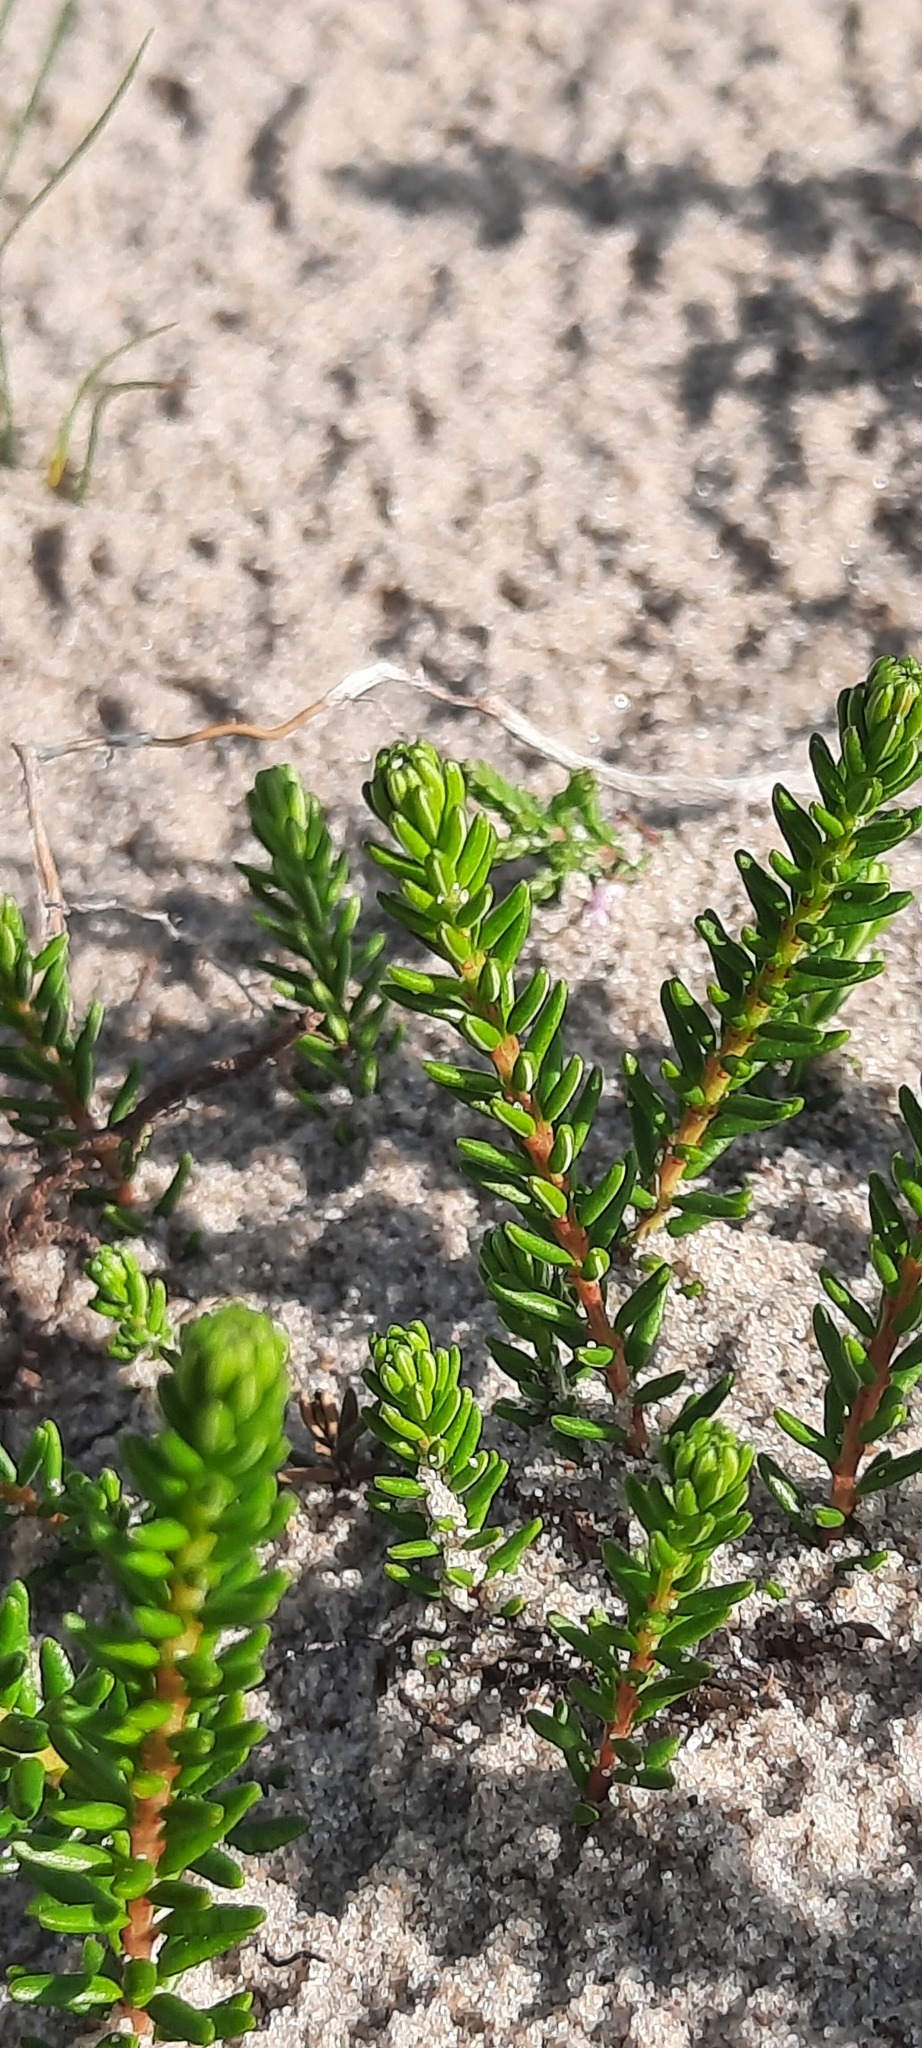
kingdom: Plantae
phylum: Tracheophyta
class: Magnoliopsida
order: Ericales
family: Ericaceae
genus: Empetrum
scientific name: Empetrum nigrum
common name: Black crowberry
